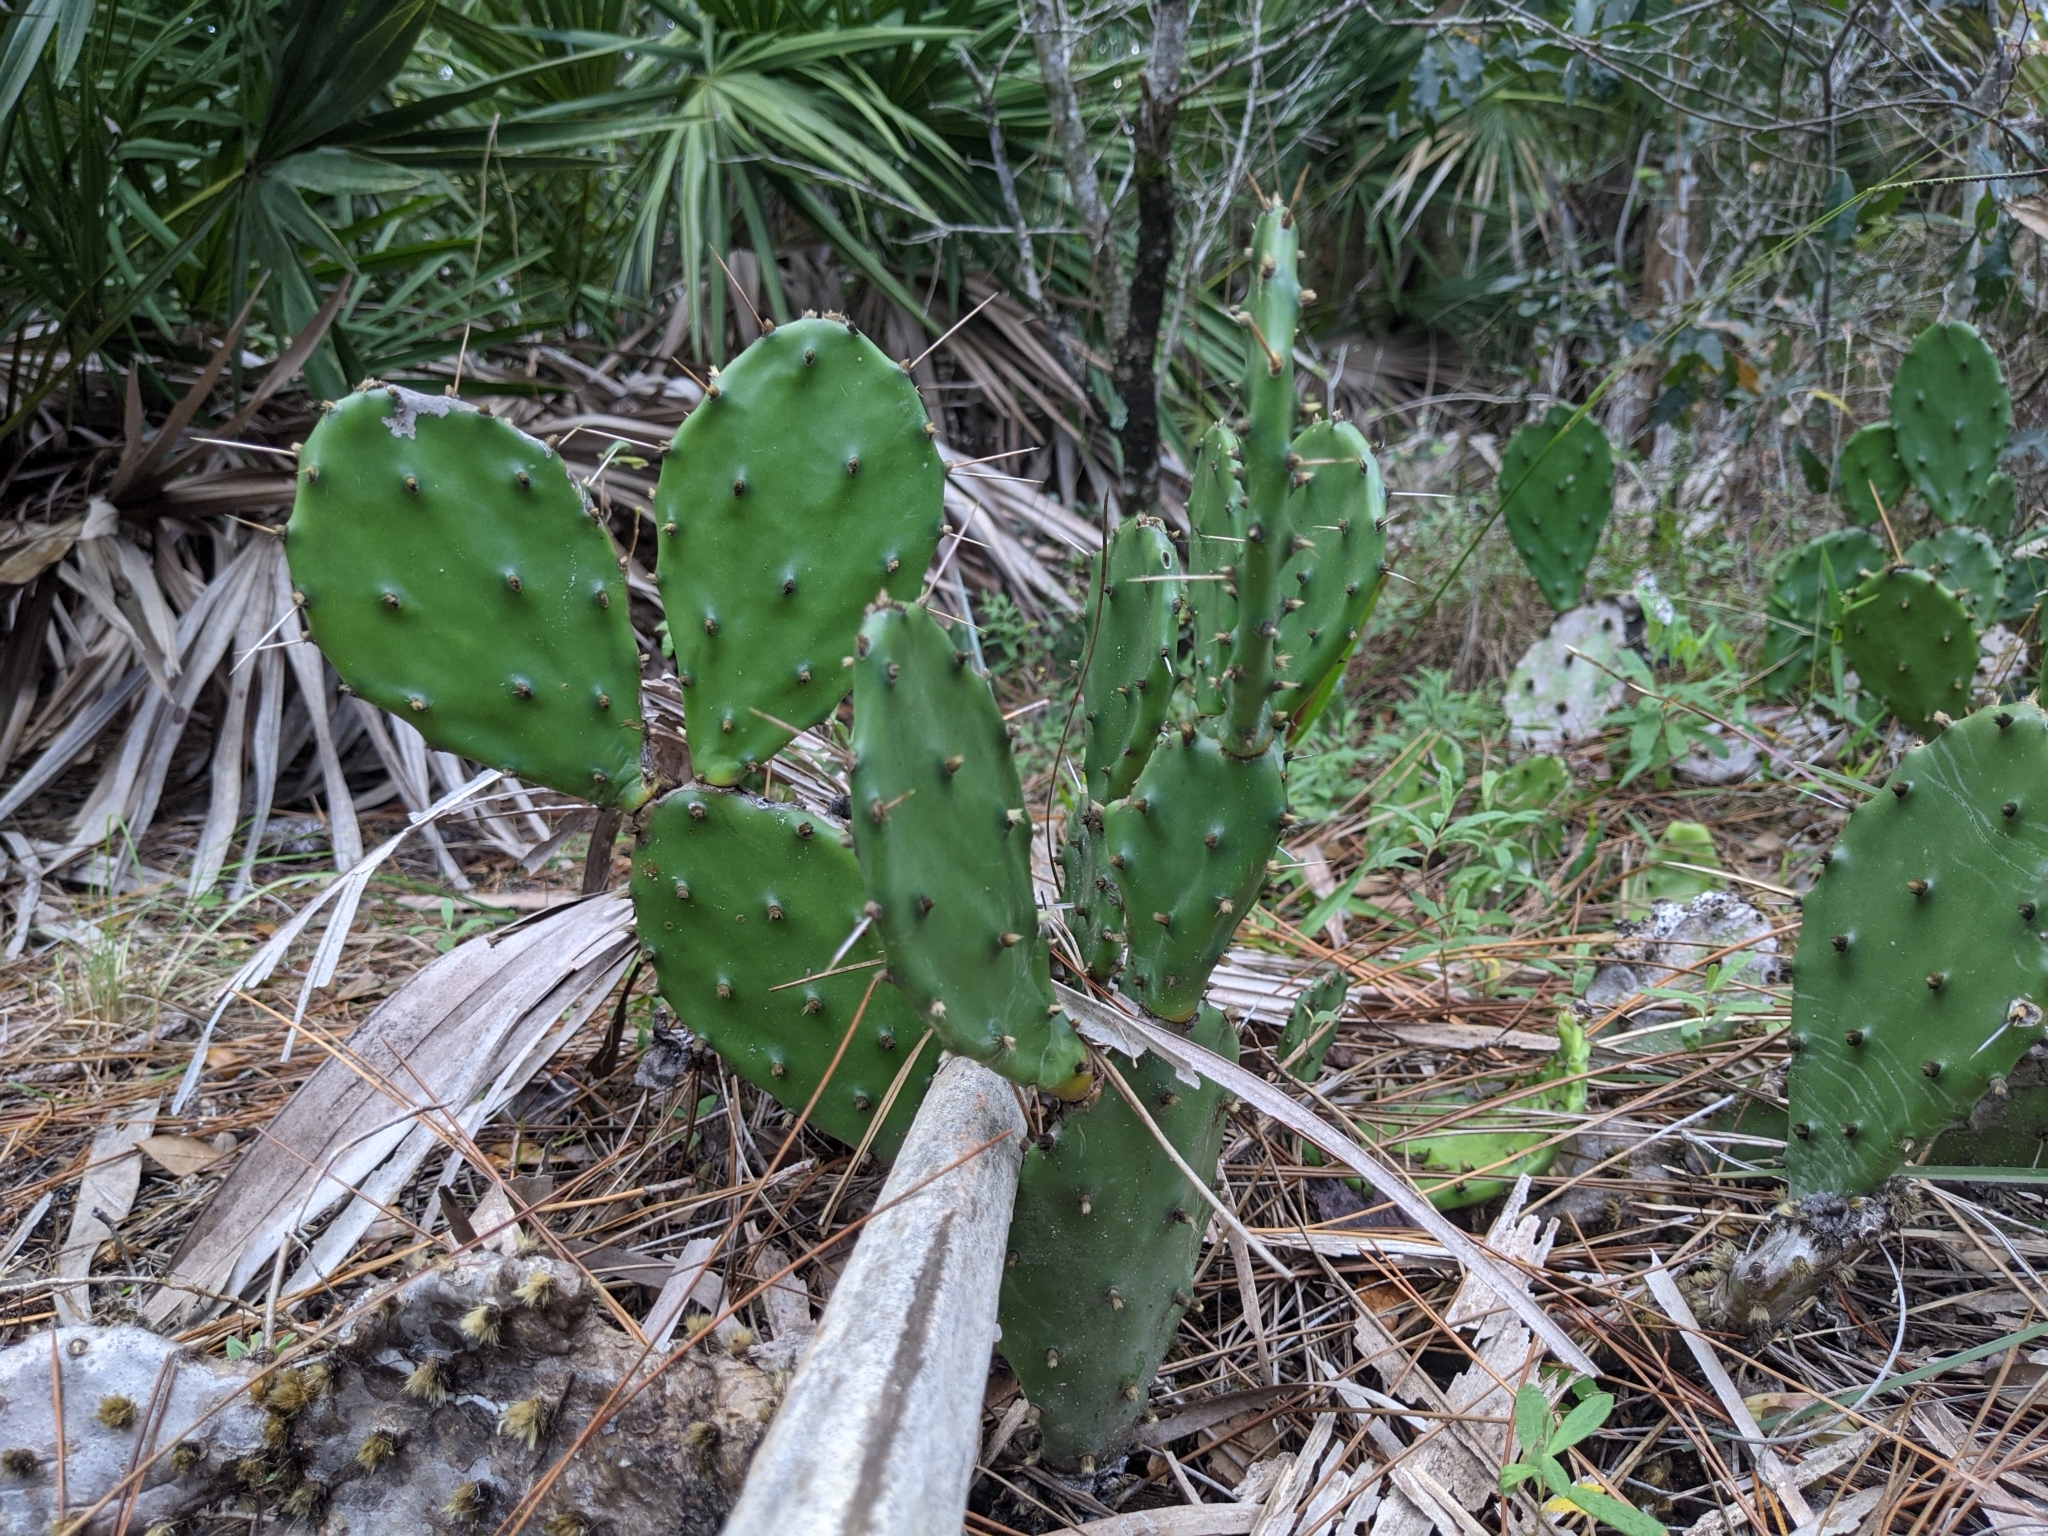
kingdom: Plantae
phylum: Tracheophyta
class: Magnoliopsida
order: Caryophyllales
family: Cactaceae
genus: Opuntia
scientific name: Opuntia austrina
